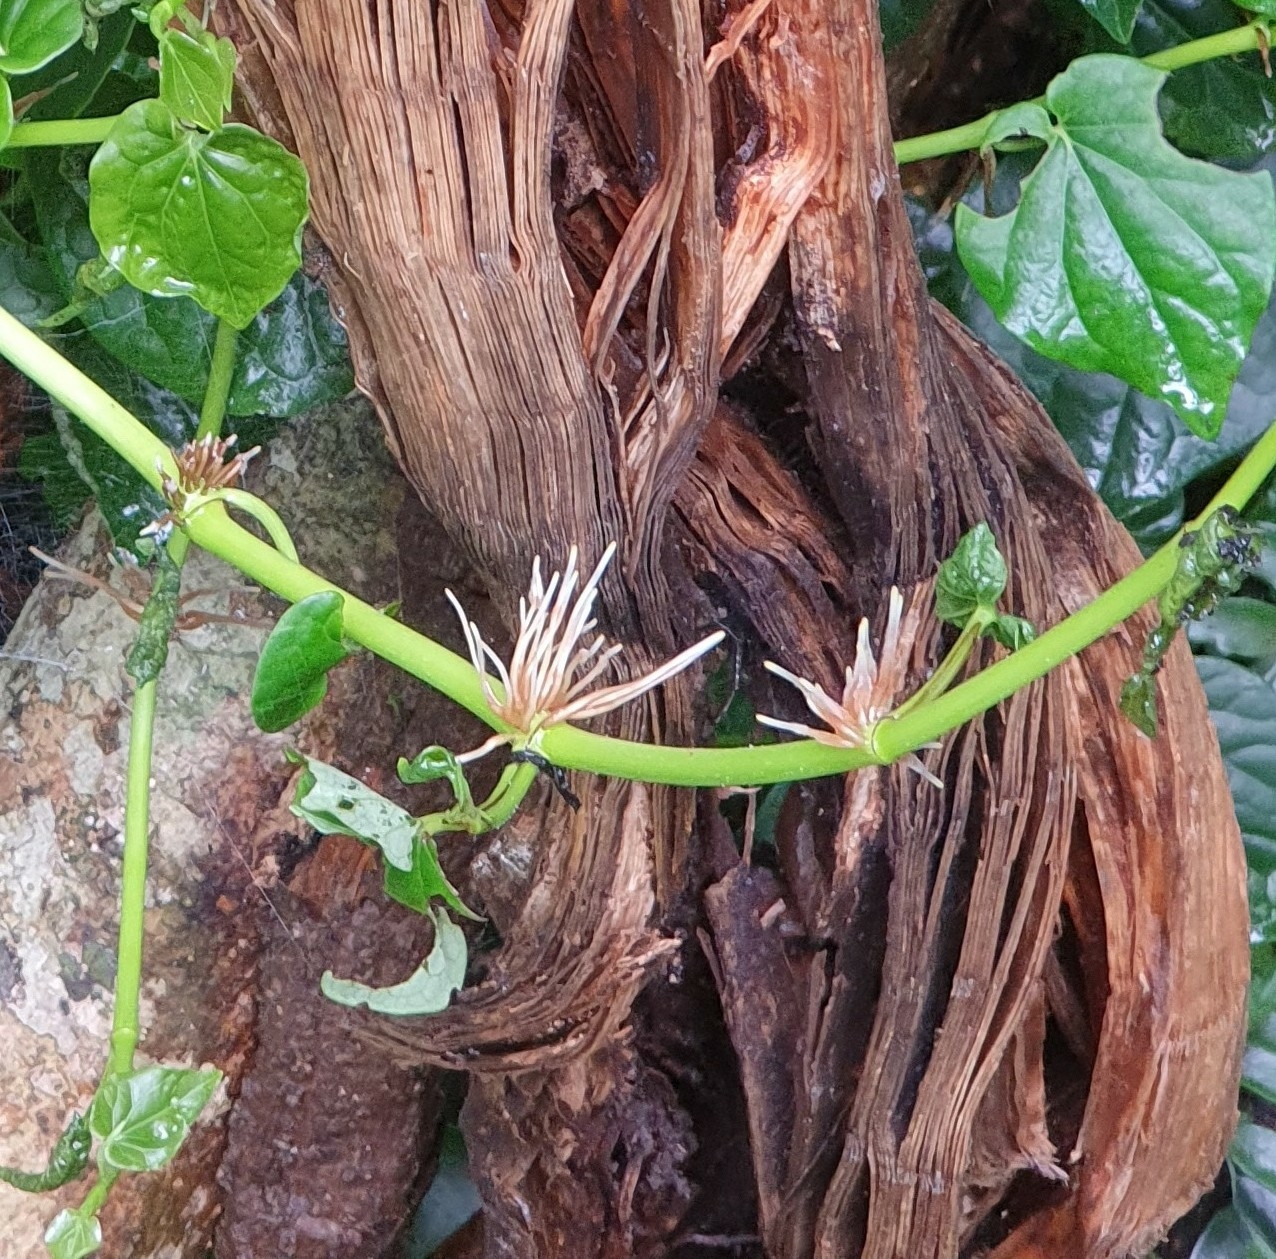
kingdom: Plantae
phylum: Tracheophyta
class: Magnoliopsida
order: Piperales
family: Piperaceae
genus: Piper
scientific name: Piper hederaceum
